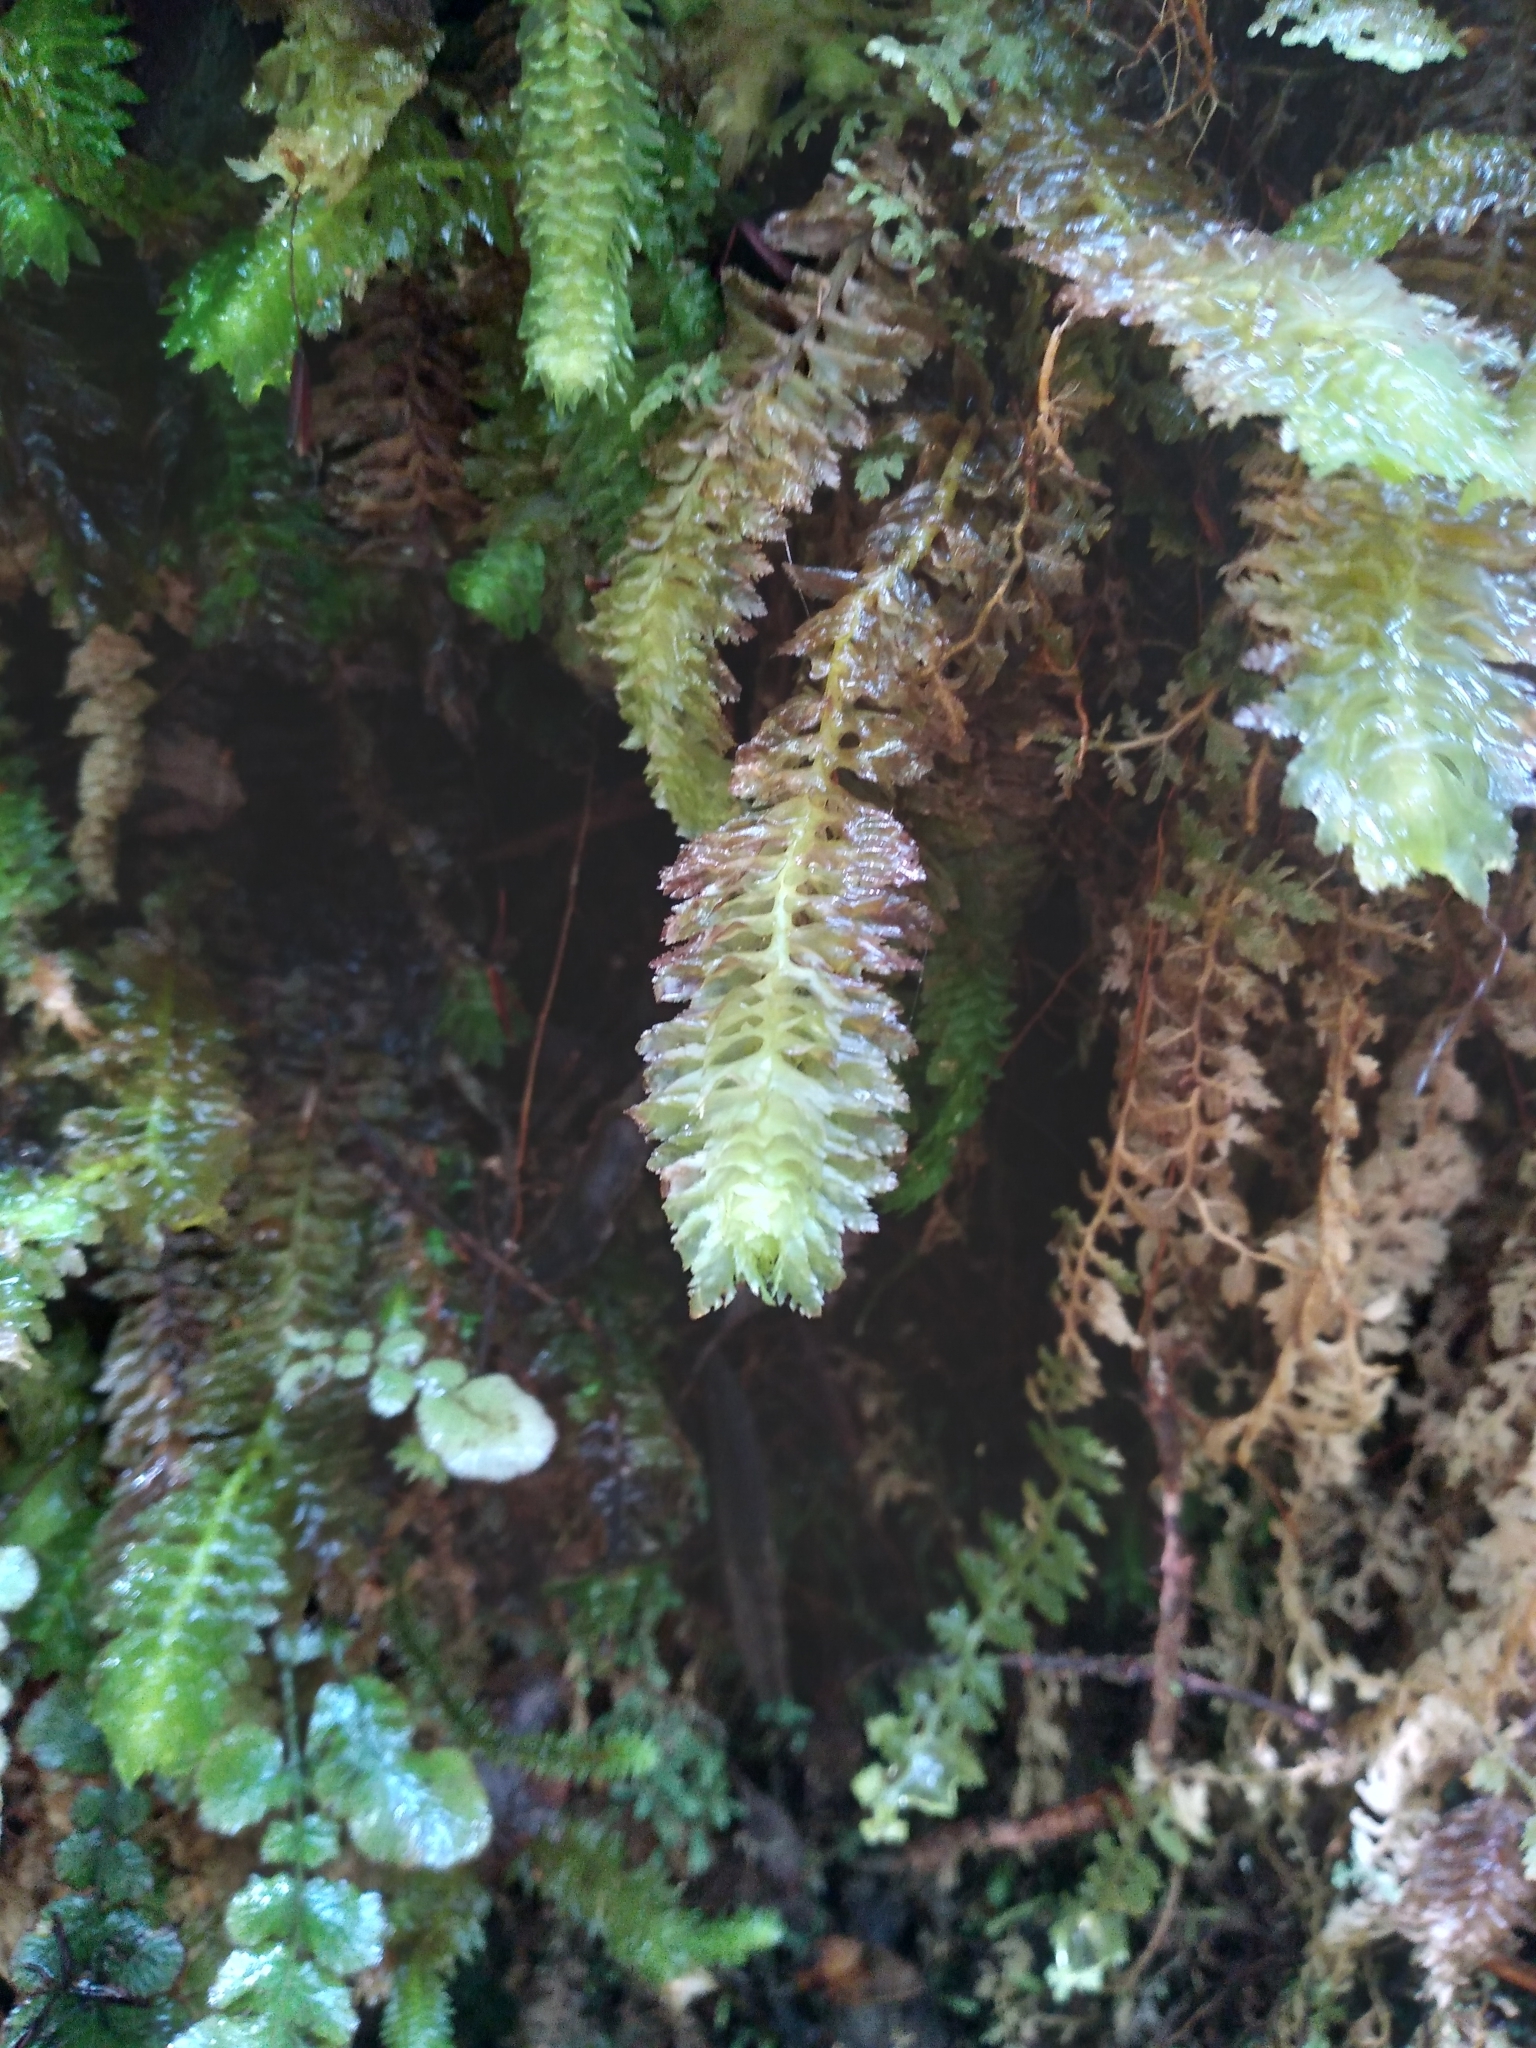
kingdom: Plantae
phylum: Marchantiophyta
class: Jungermanniopsida
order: Jungermanniales
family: Schistochilaceae
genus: Schistochila
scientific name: Schistochila appendiculata
